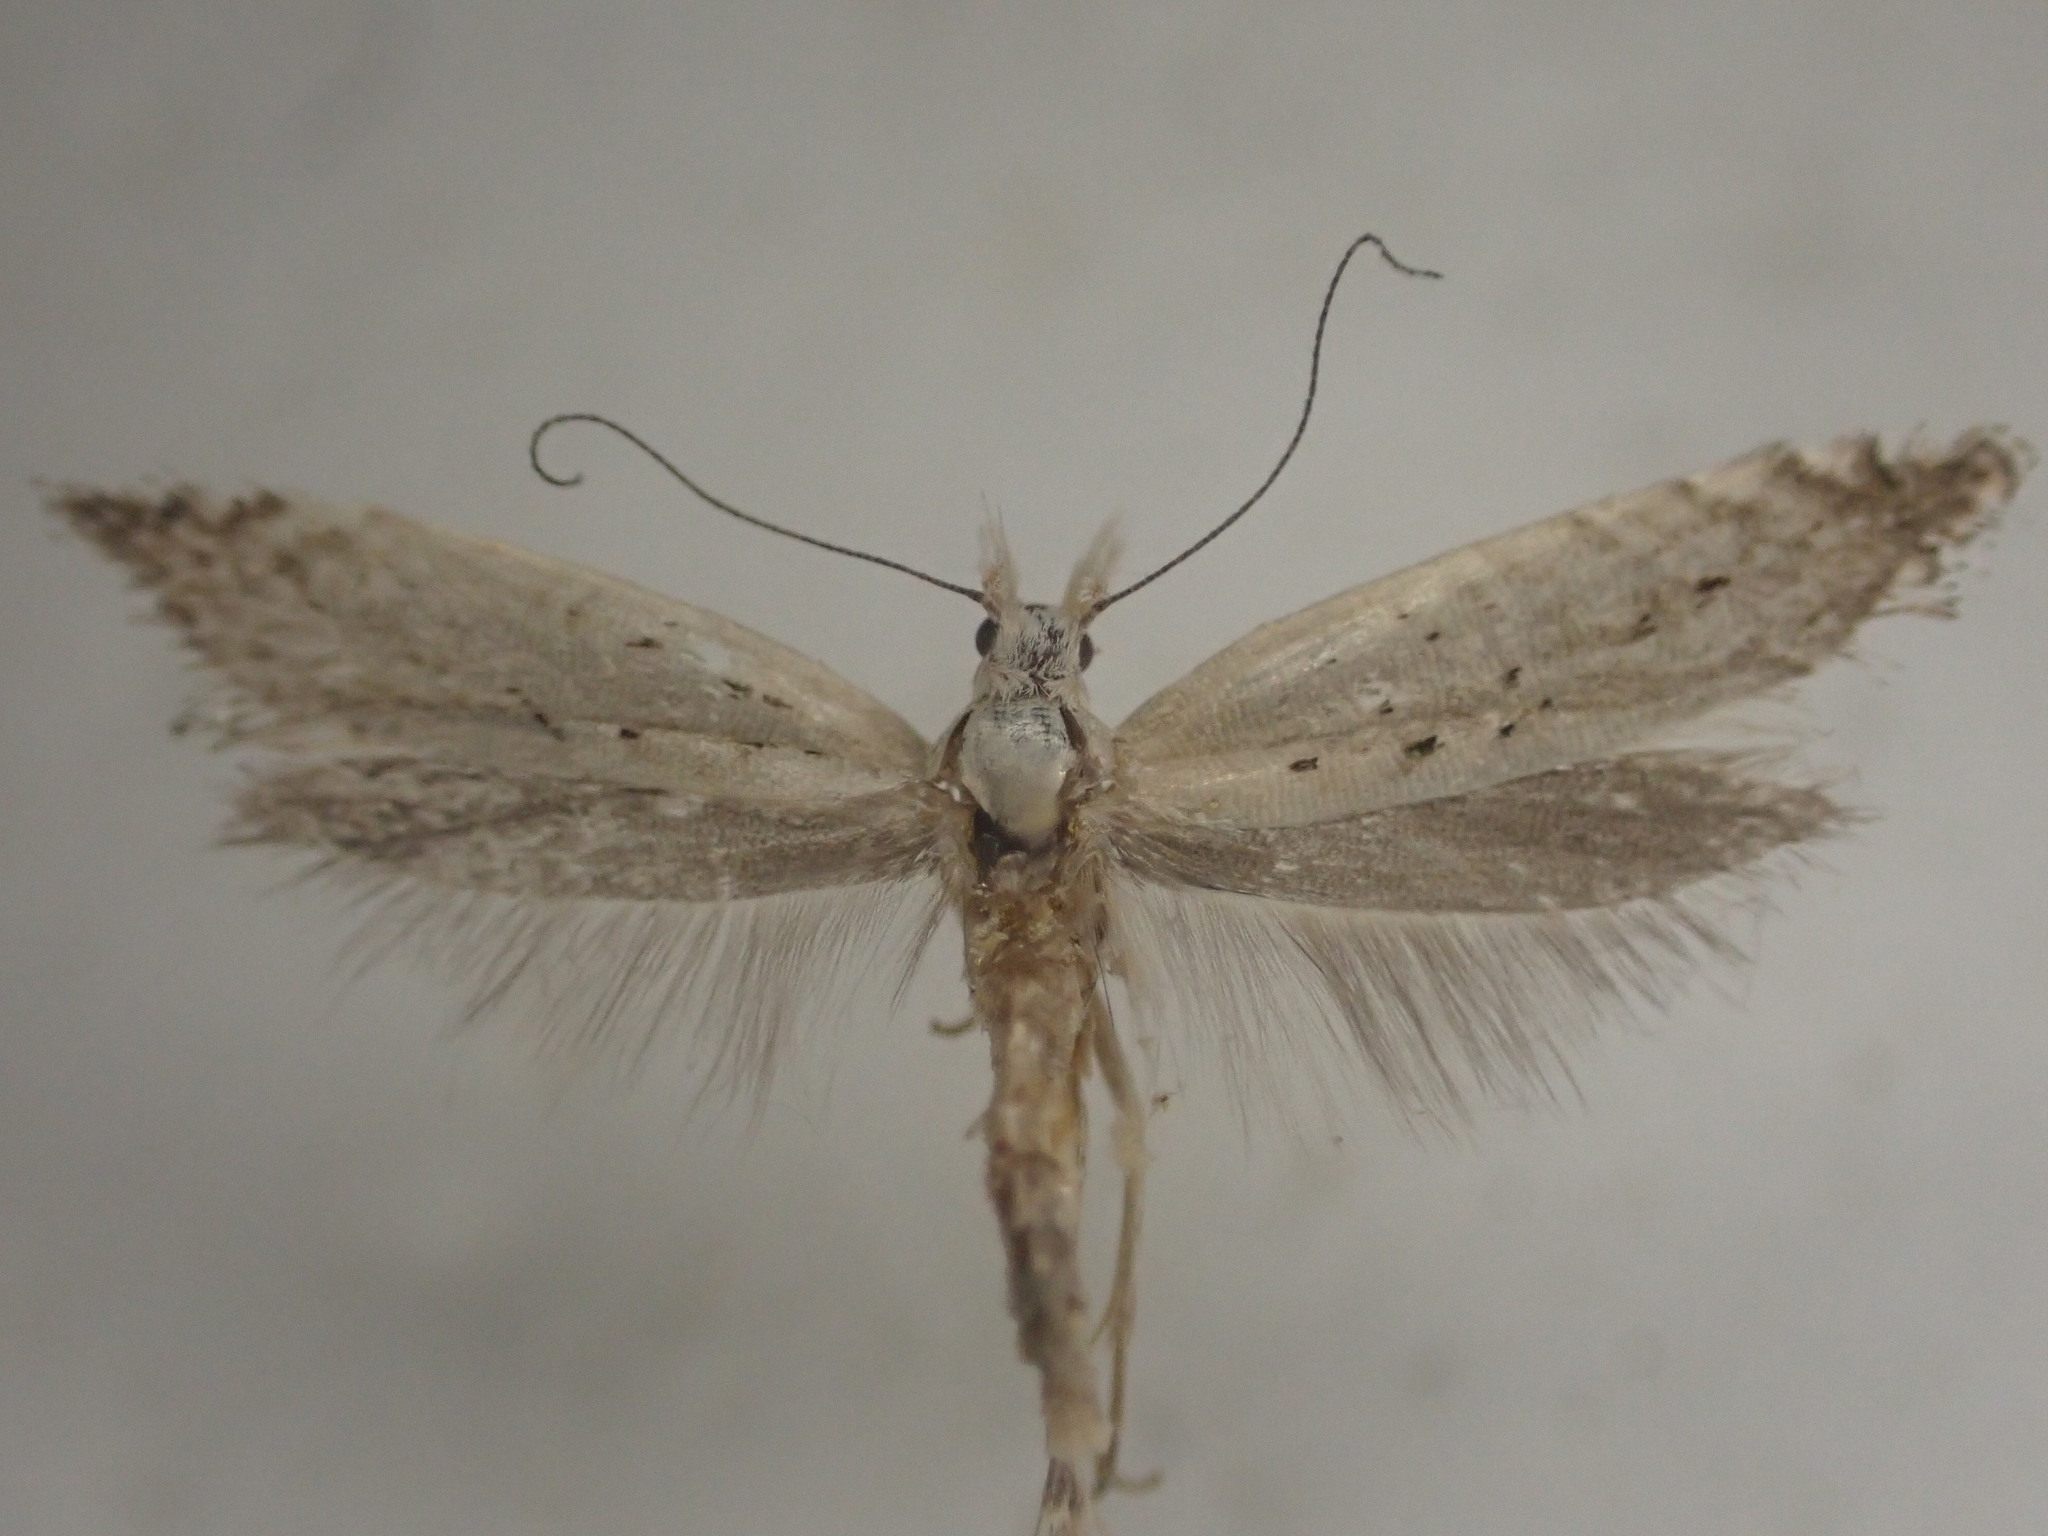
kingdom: Animalia
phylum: Arthropoda
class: Insecta
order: Lepidoptera
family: Glyphipterigidae
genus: Glyphipterix
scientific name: Glyphipterix achlyoessa
